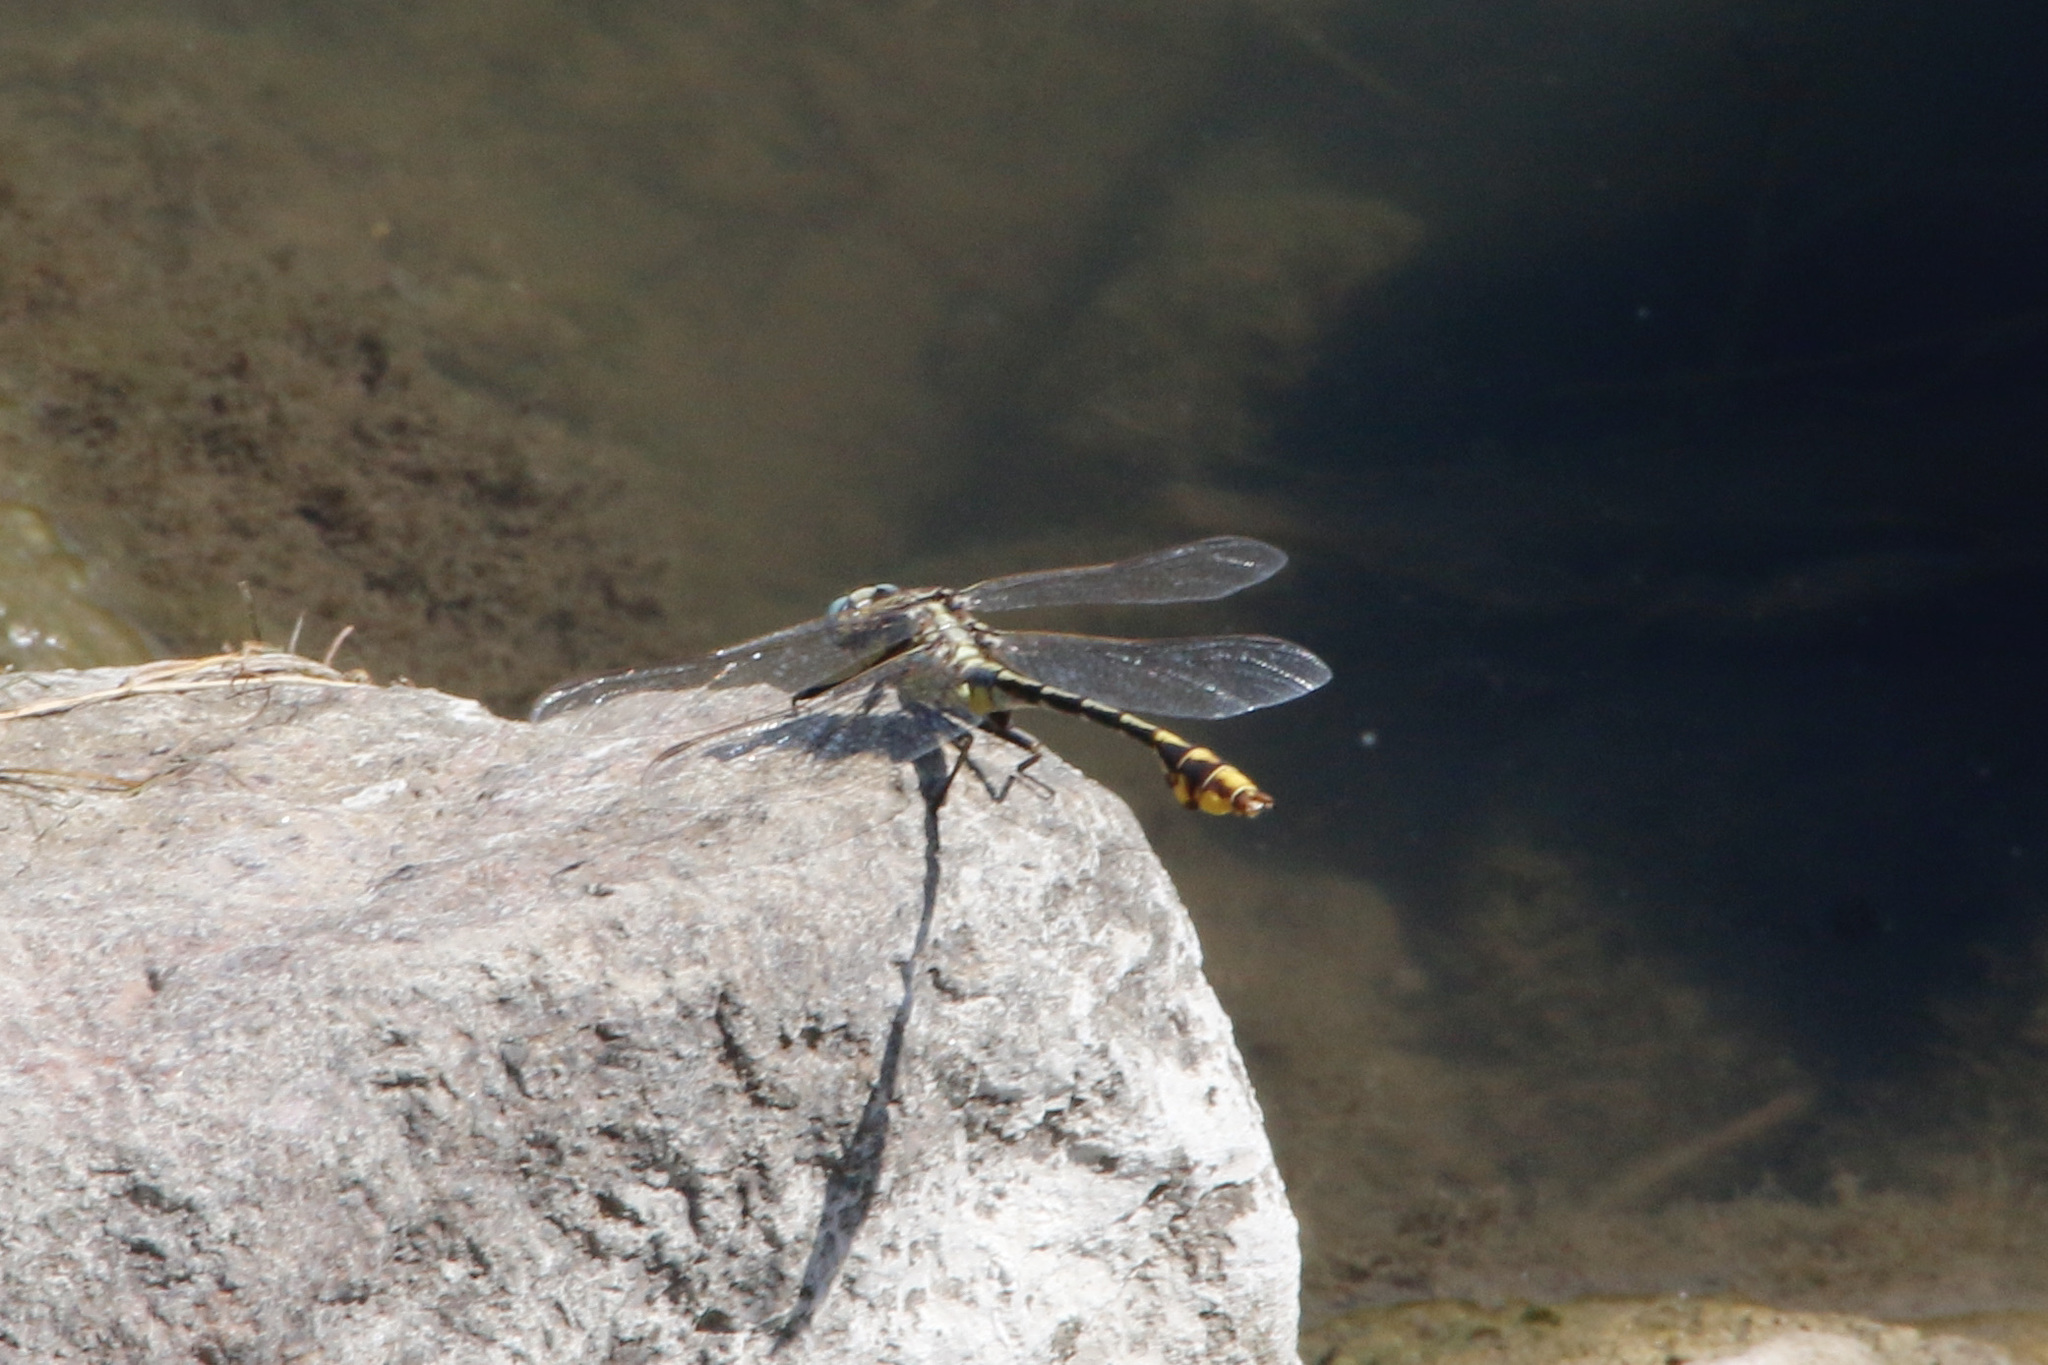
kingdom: Animalia
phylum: Arthropoda
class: Insecta
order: Odonata
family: Gomphidae
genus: Gomphurus
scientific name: Gomphurus externus
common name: Plains clubtail
